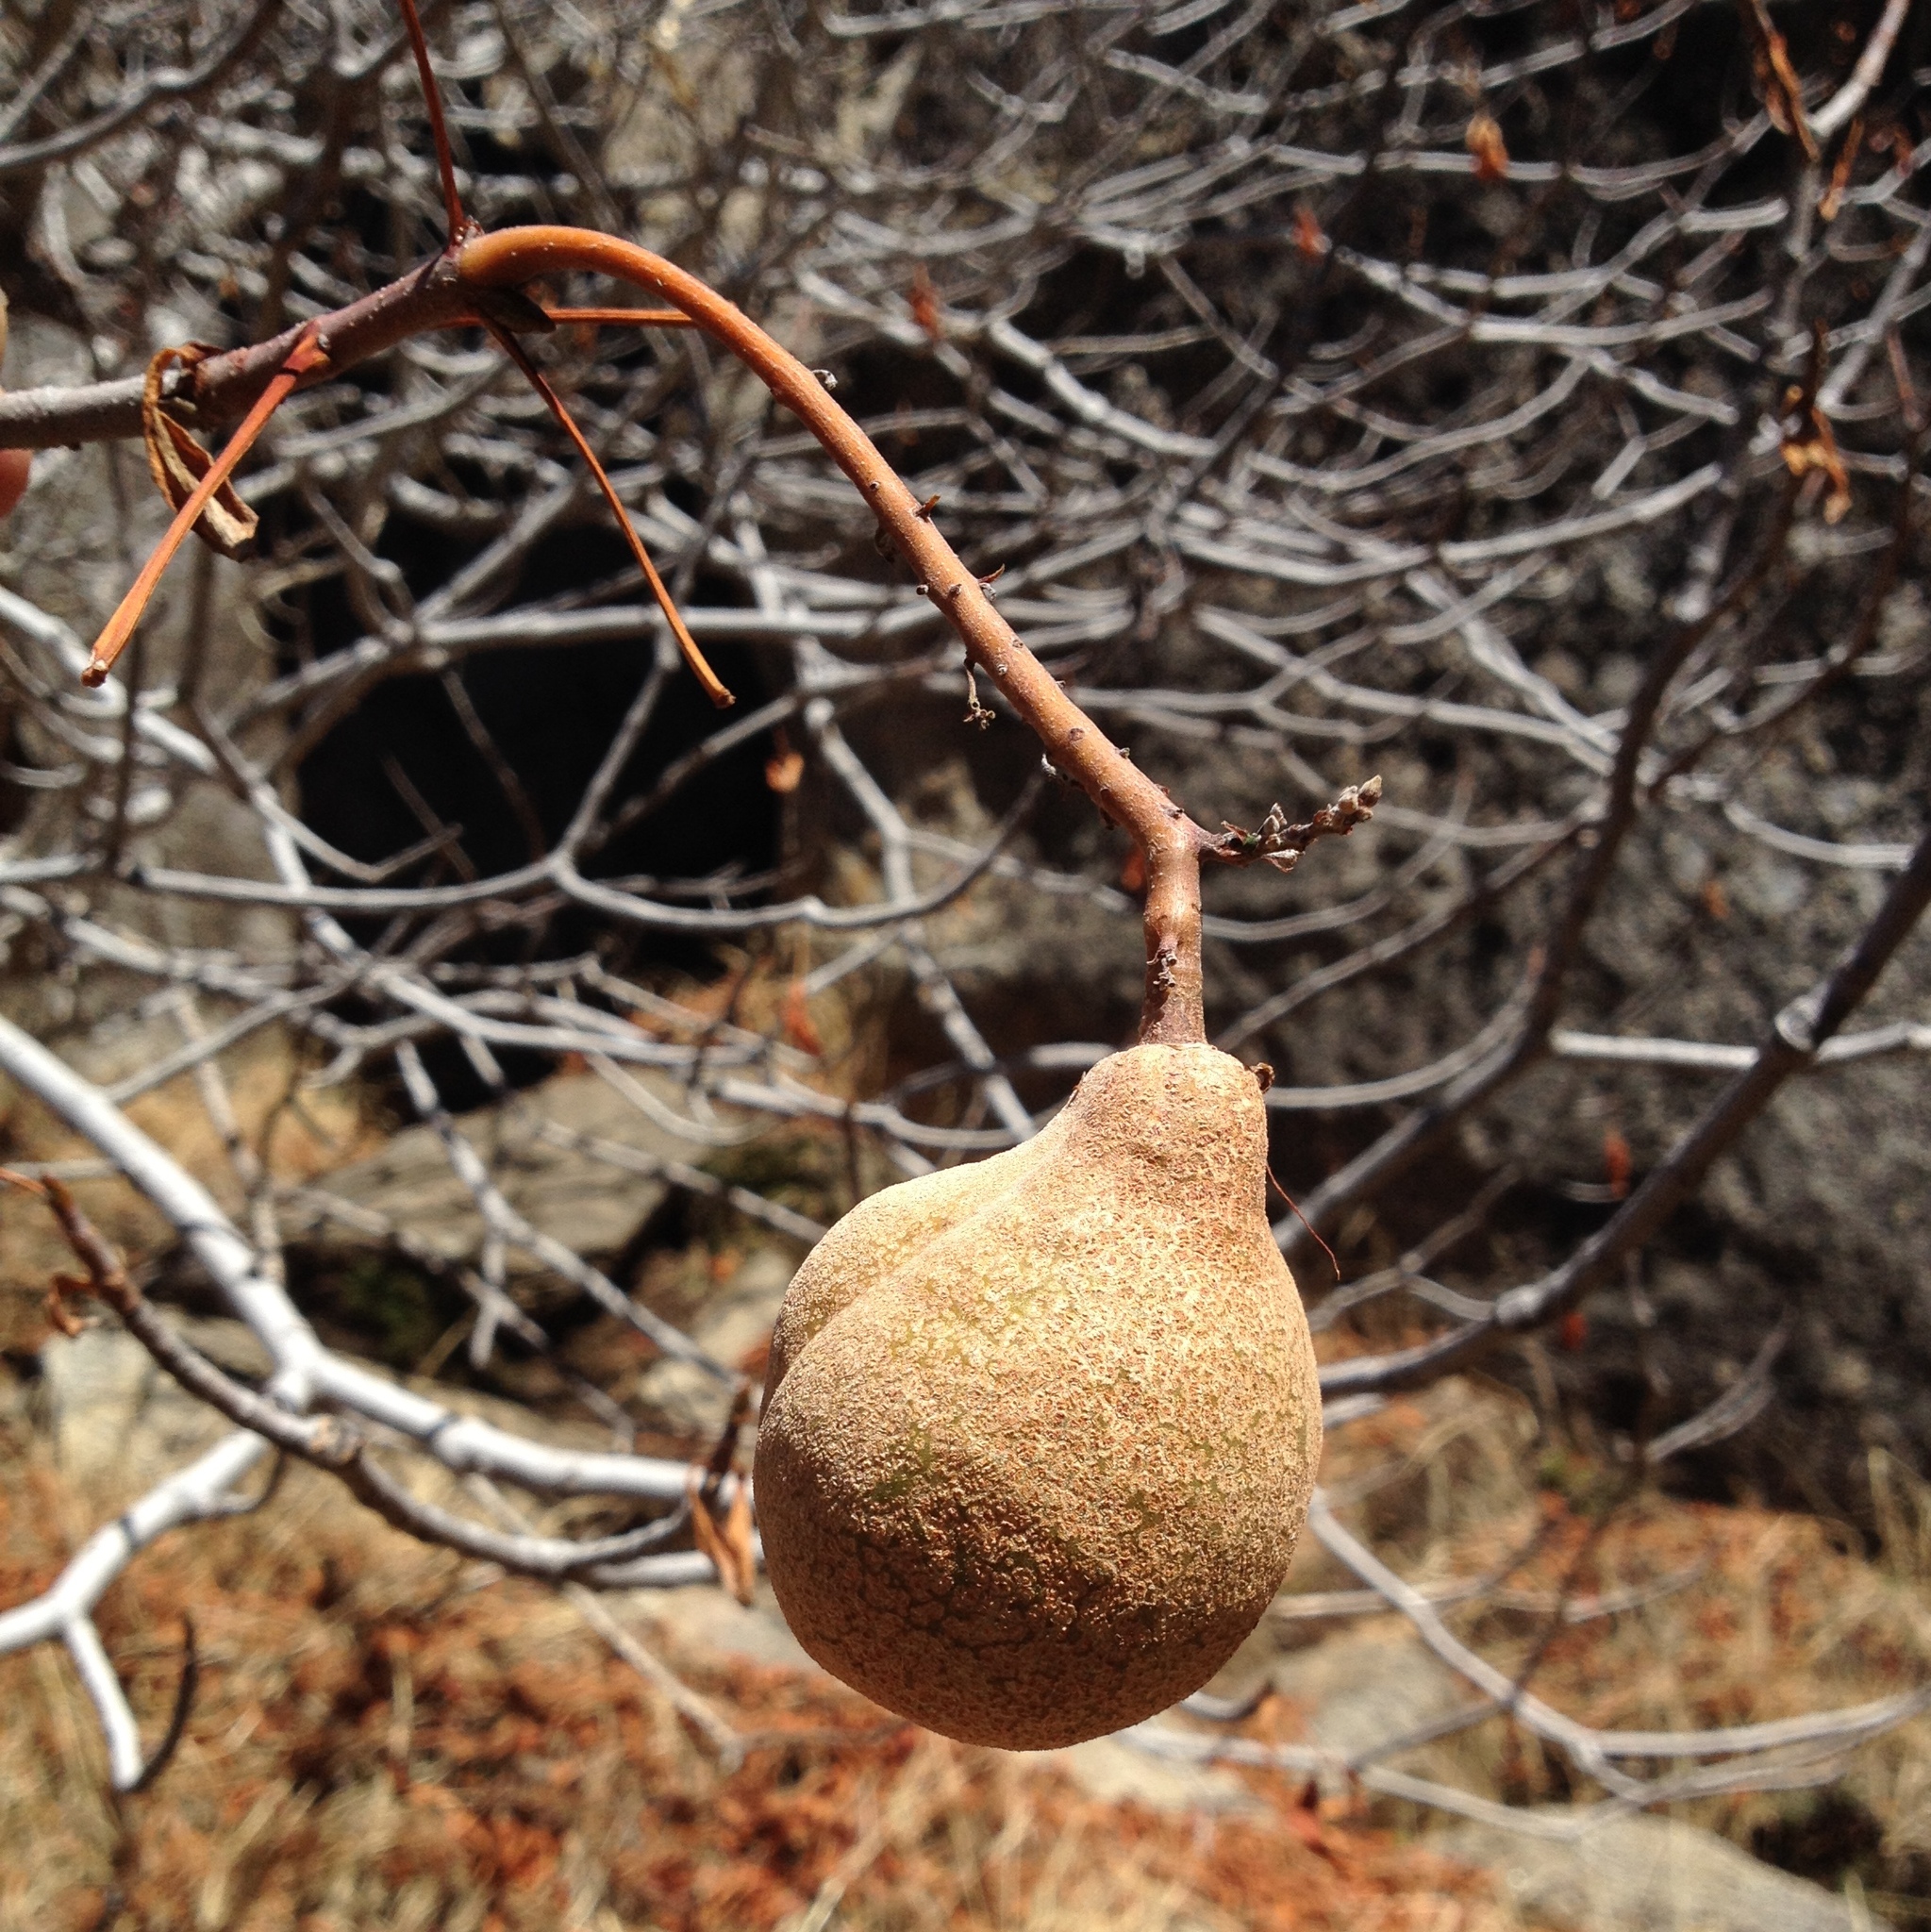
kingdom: Plantae
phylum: Tracheophyta
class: Magnoliopsida
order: Sapindales
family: Sapindaceae
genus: Aesculus
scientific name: Aesculus californica
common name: California buckeye
